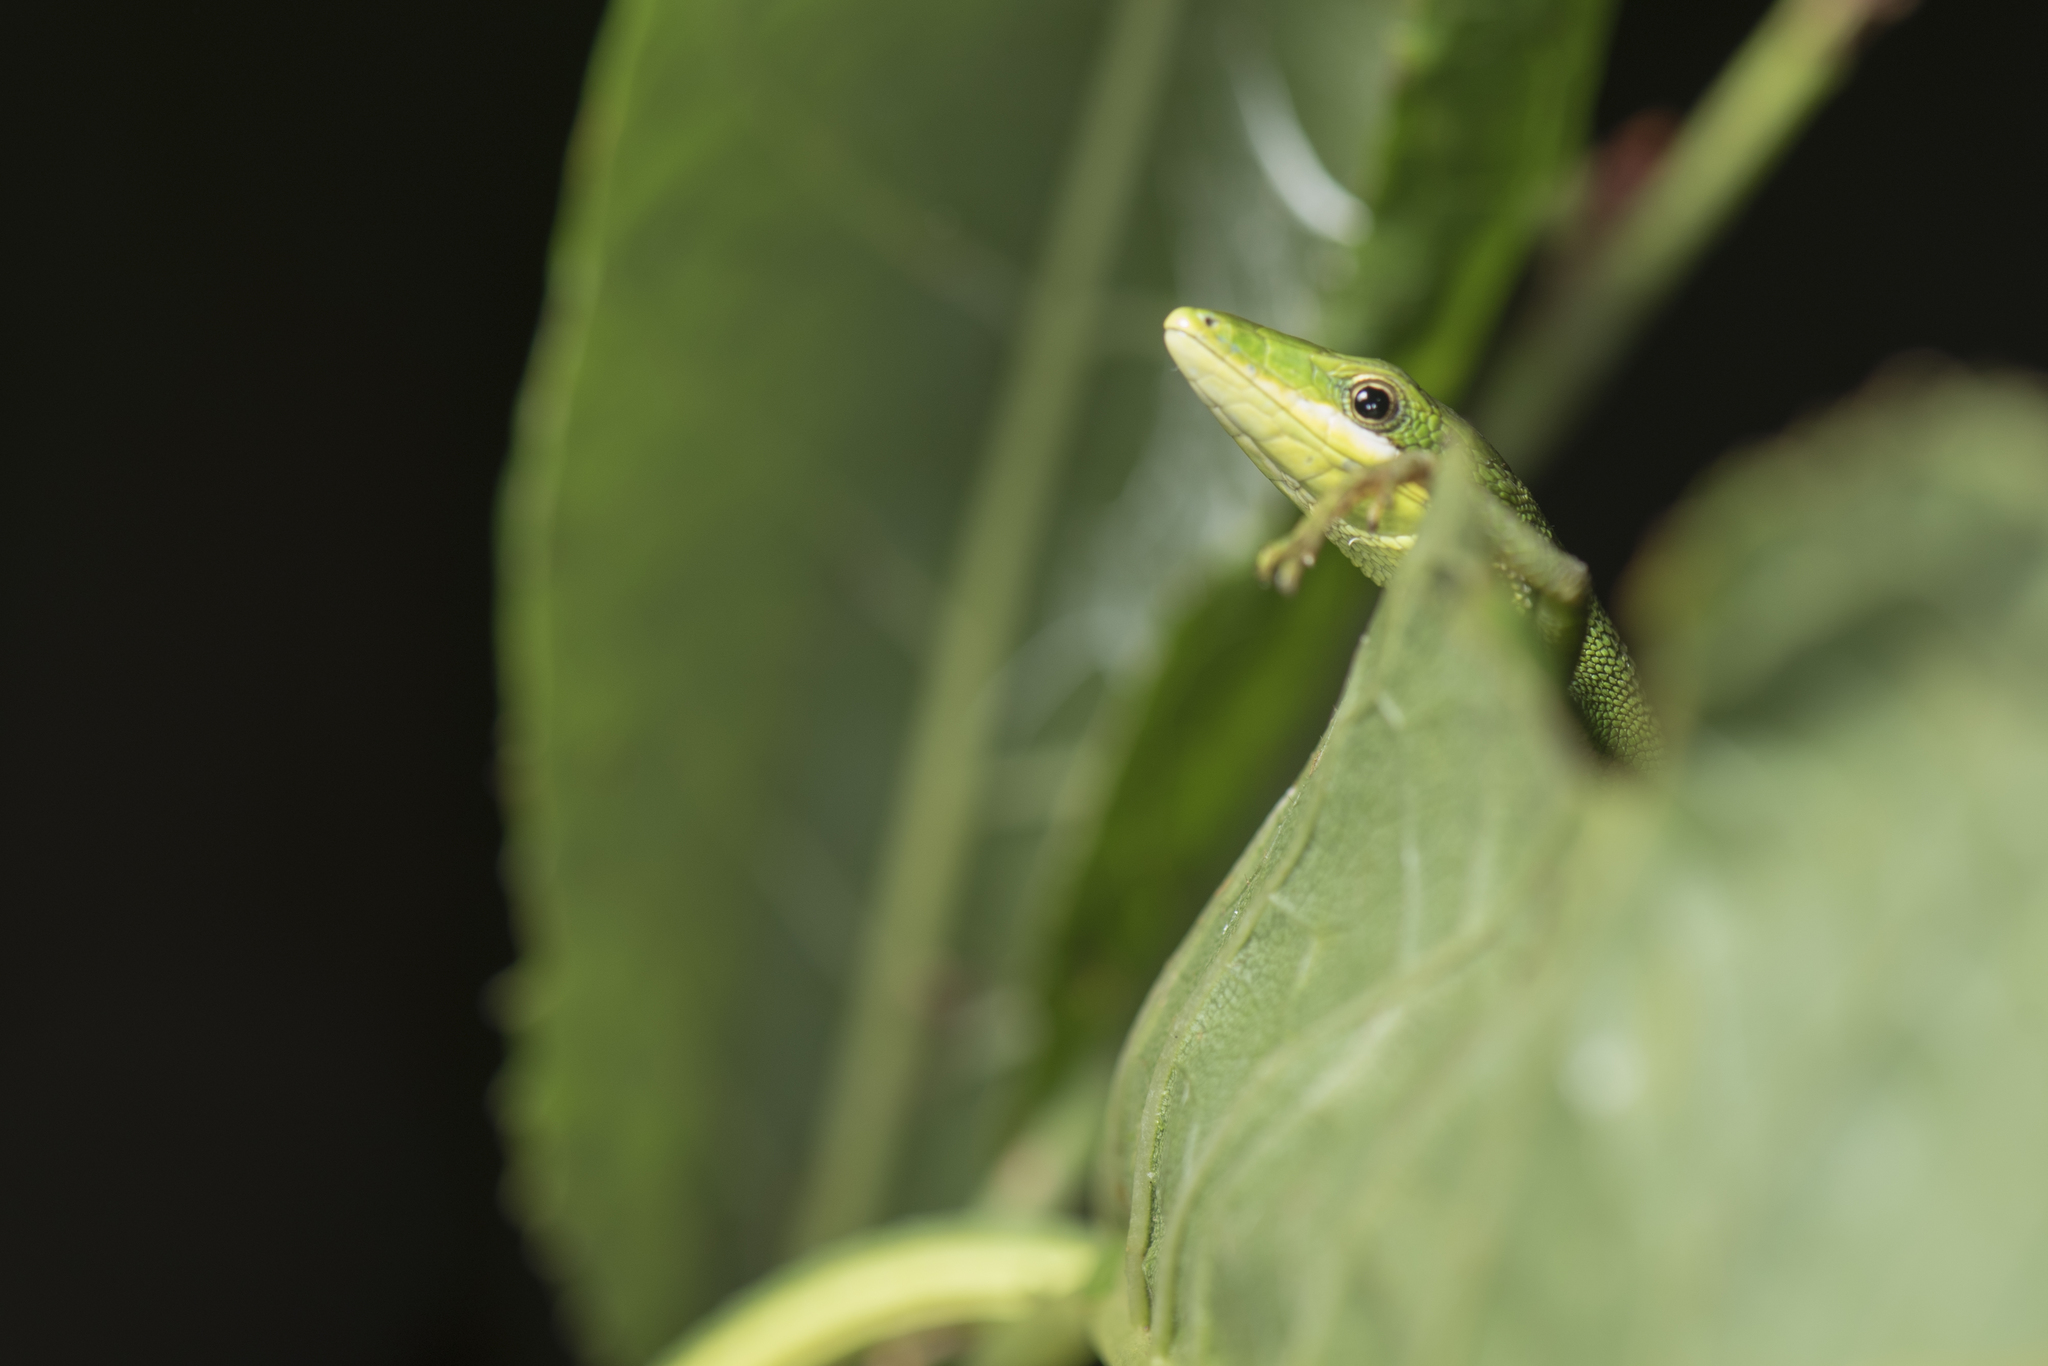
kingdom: Animalia
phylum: Chordata
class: Squamata
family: Lacertidae
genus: Takydromus
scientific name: Takydromus sauteri
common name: Koshun grass lizard
